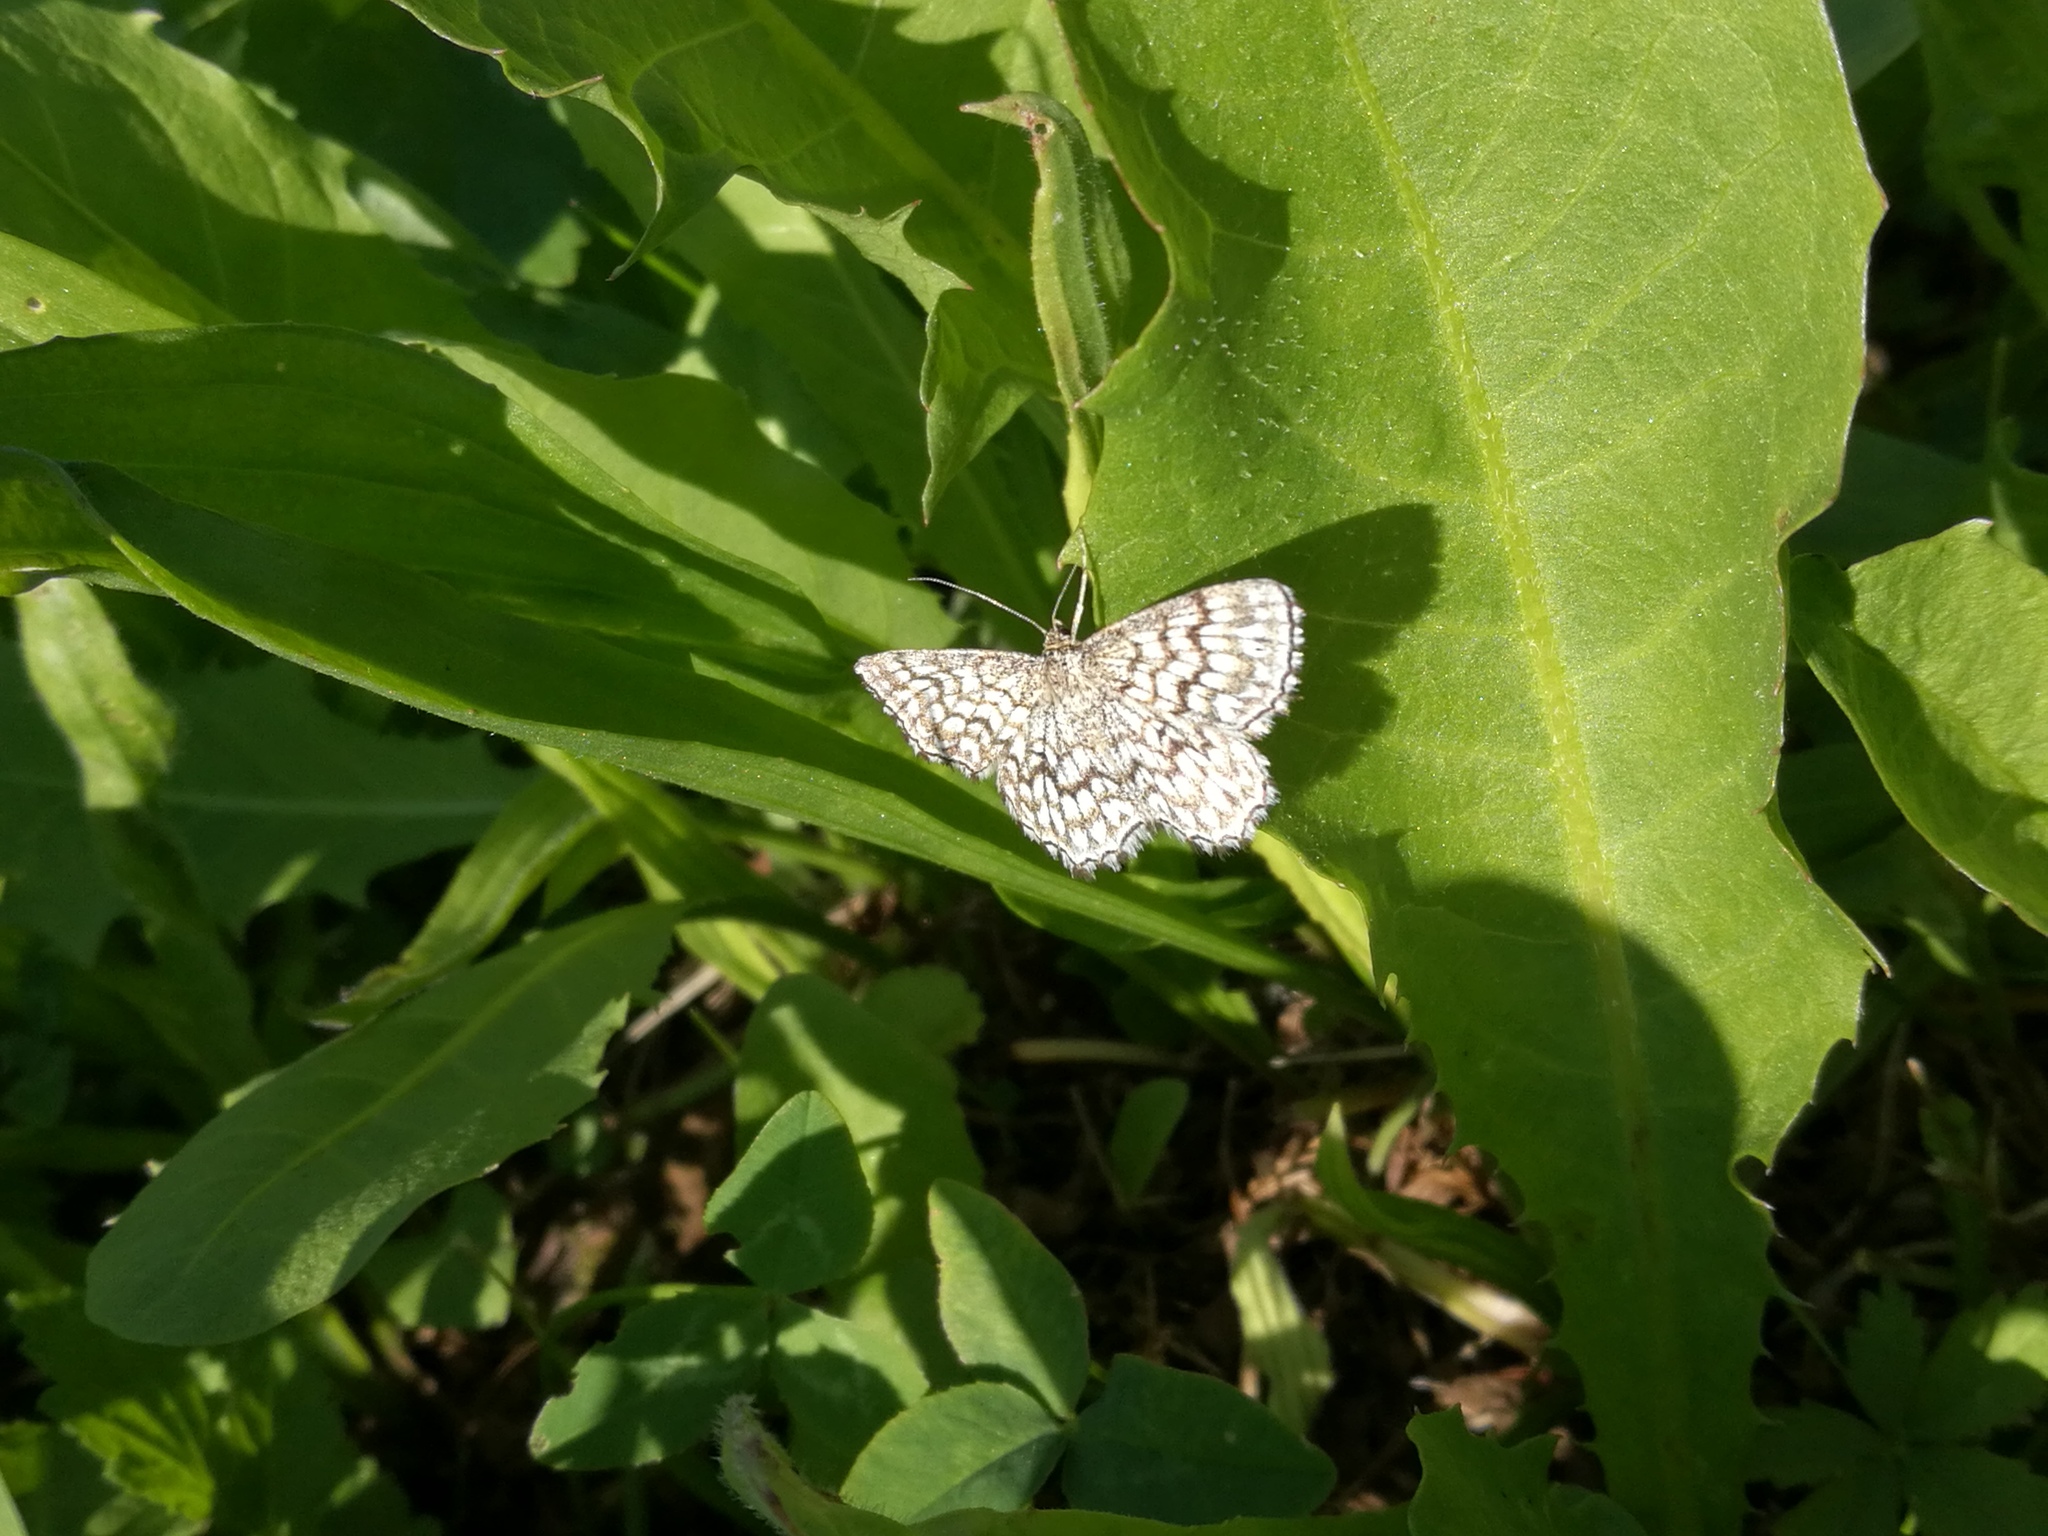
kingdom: Animalia
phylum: Arthropoda
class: Insecta
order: Lepidoptera
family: Geometridae
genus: Scopula
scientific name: Scopula tessellaria
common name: Dusky-brown wave
